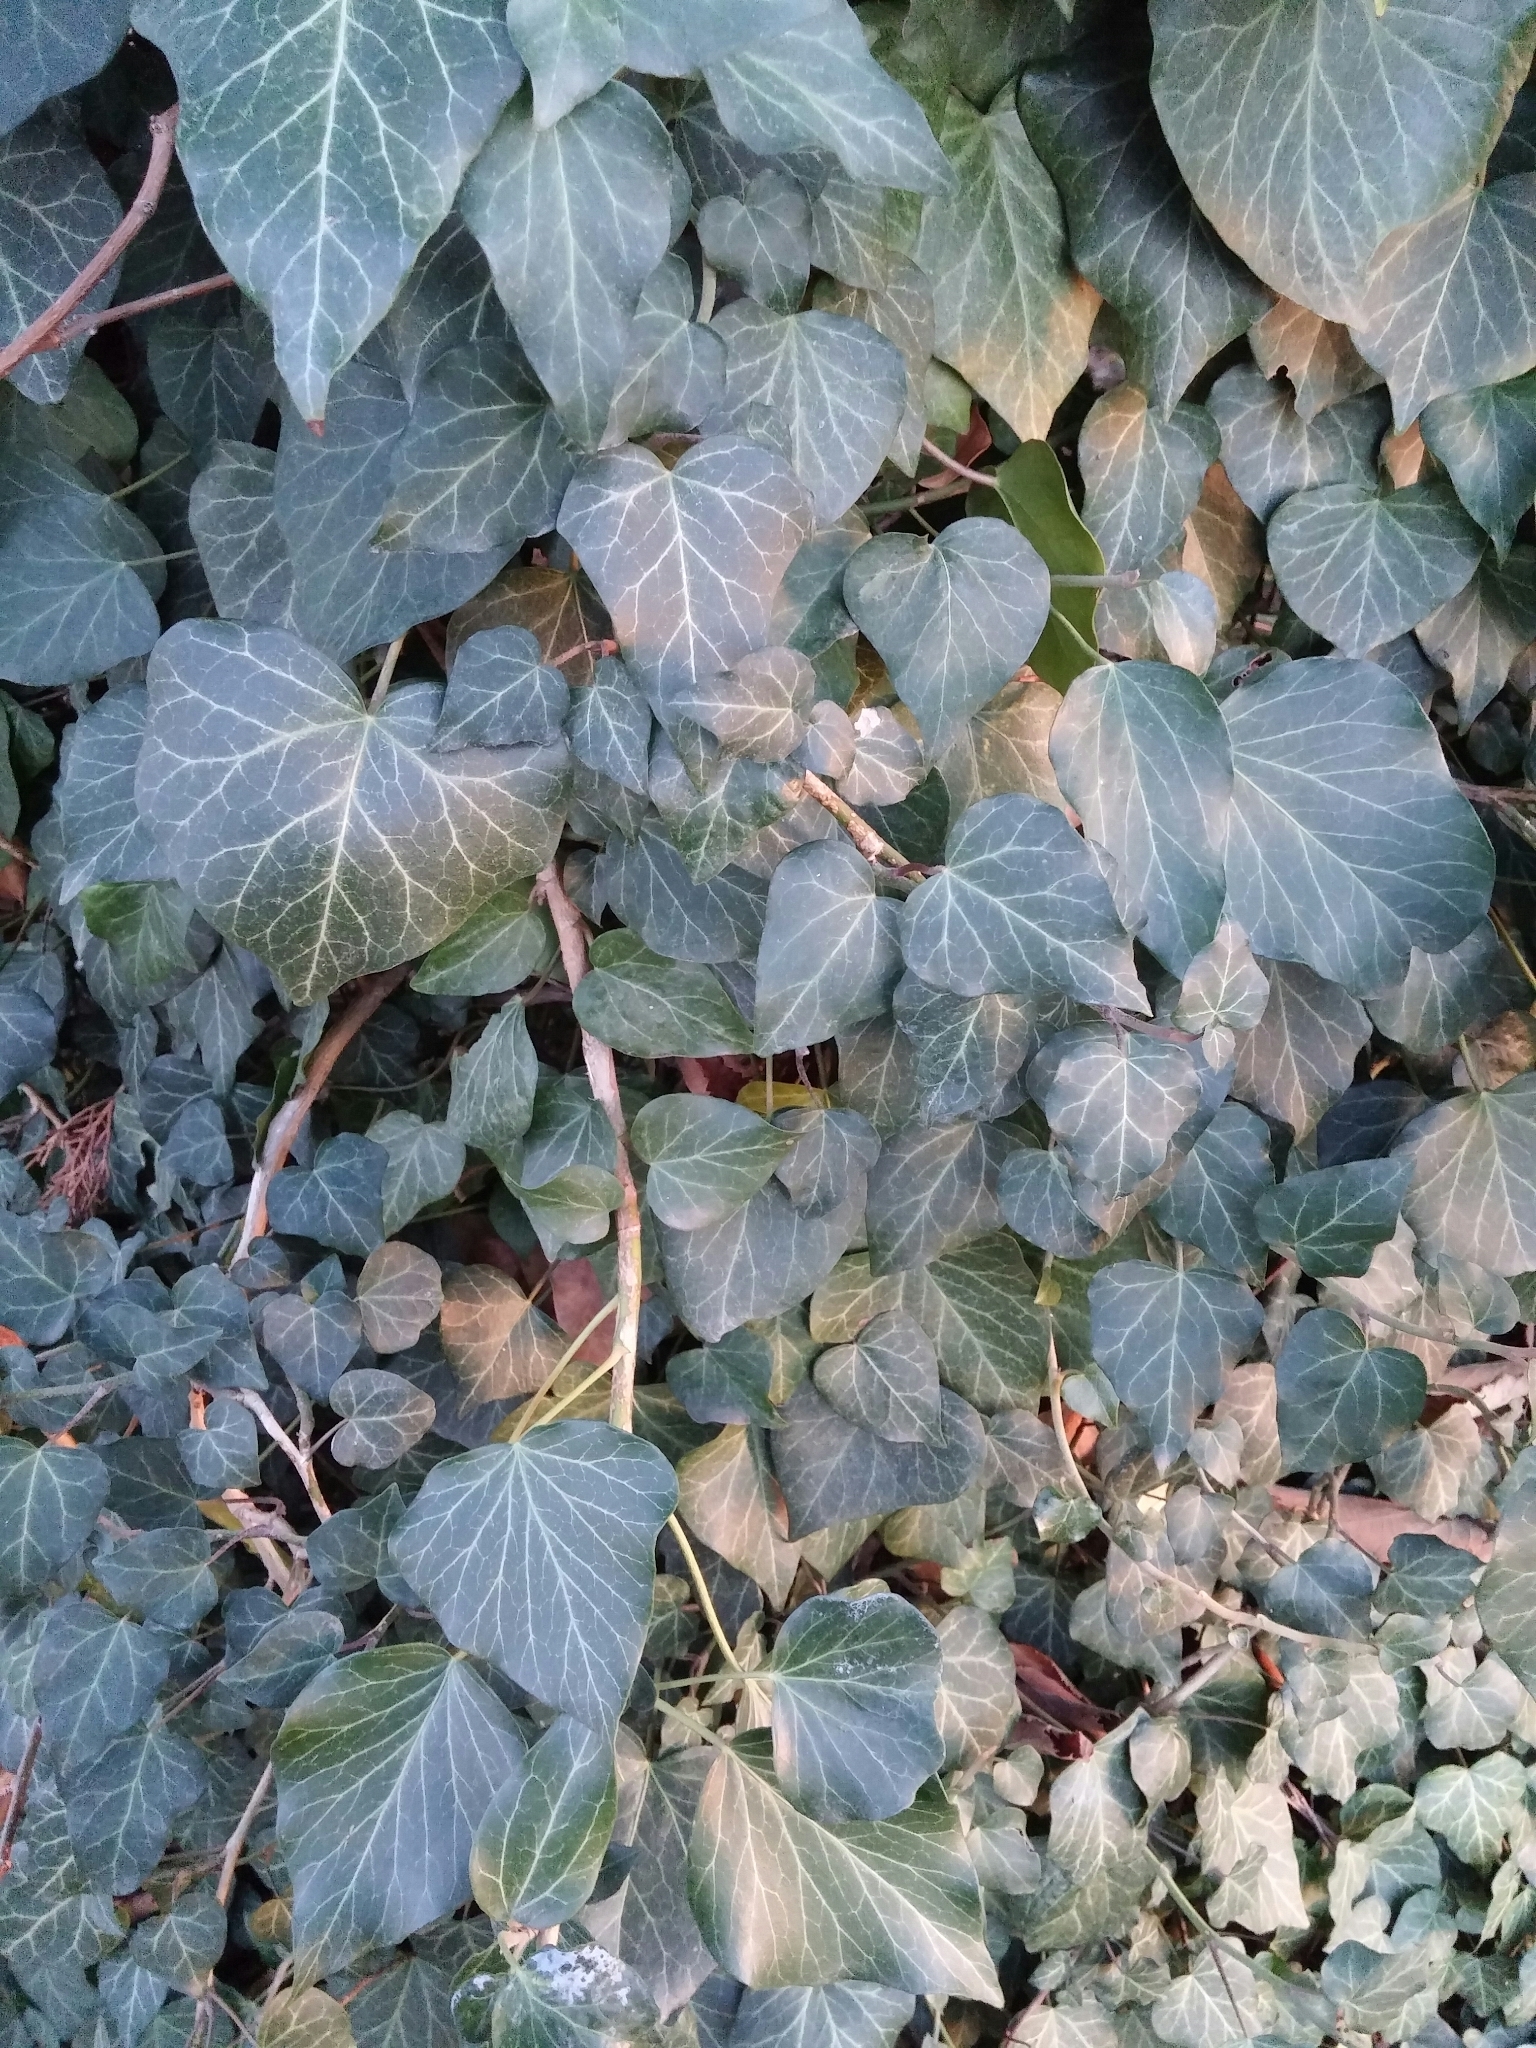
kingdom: Plantae
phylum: Tracheophyta
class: Magnoliopsida
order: Apiales
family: Araliaceae
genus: Hedera
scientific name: Hedera helix
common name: Ivy
